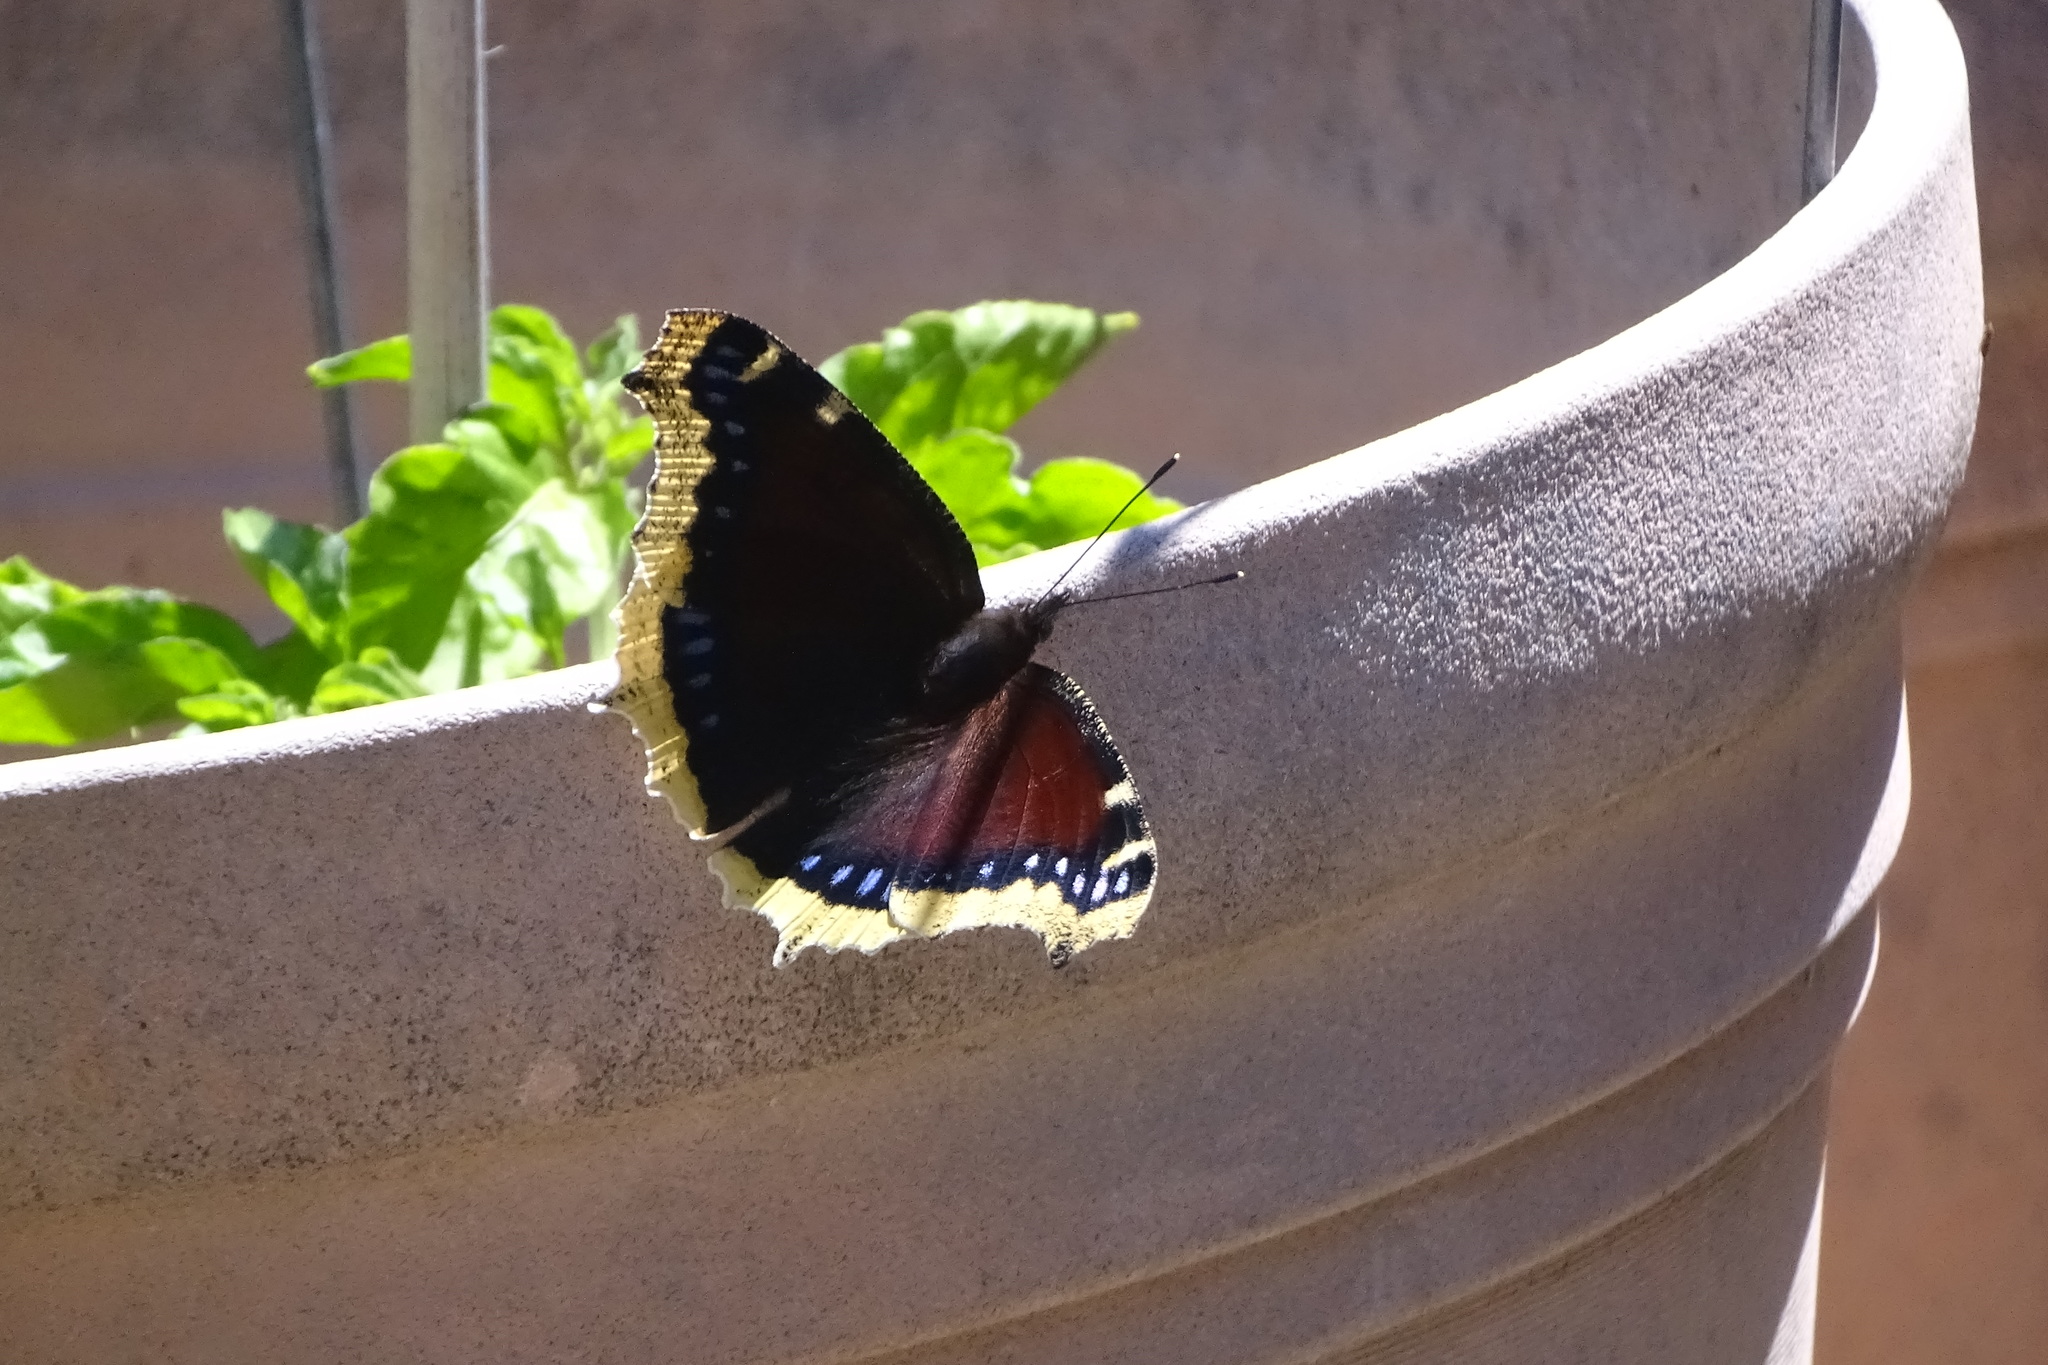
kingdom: Animalia
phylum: Arthropoda
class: Insecta
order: Lepidoptera
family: Nymphalidae
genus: Nymphalis
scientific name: Nymphalis antiopa
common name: Camberwell beauty
